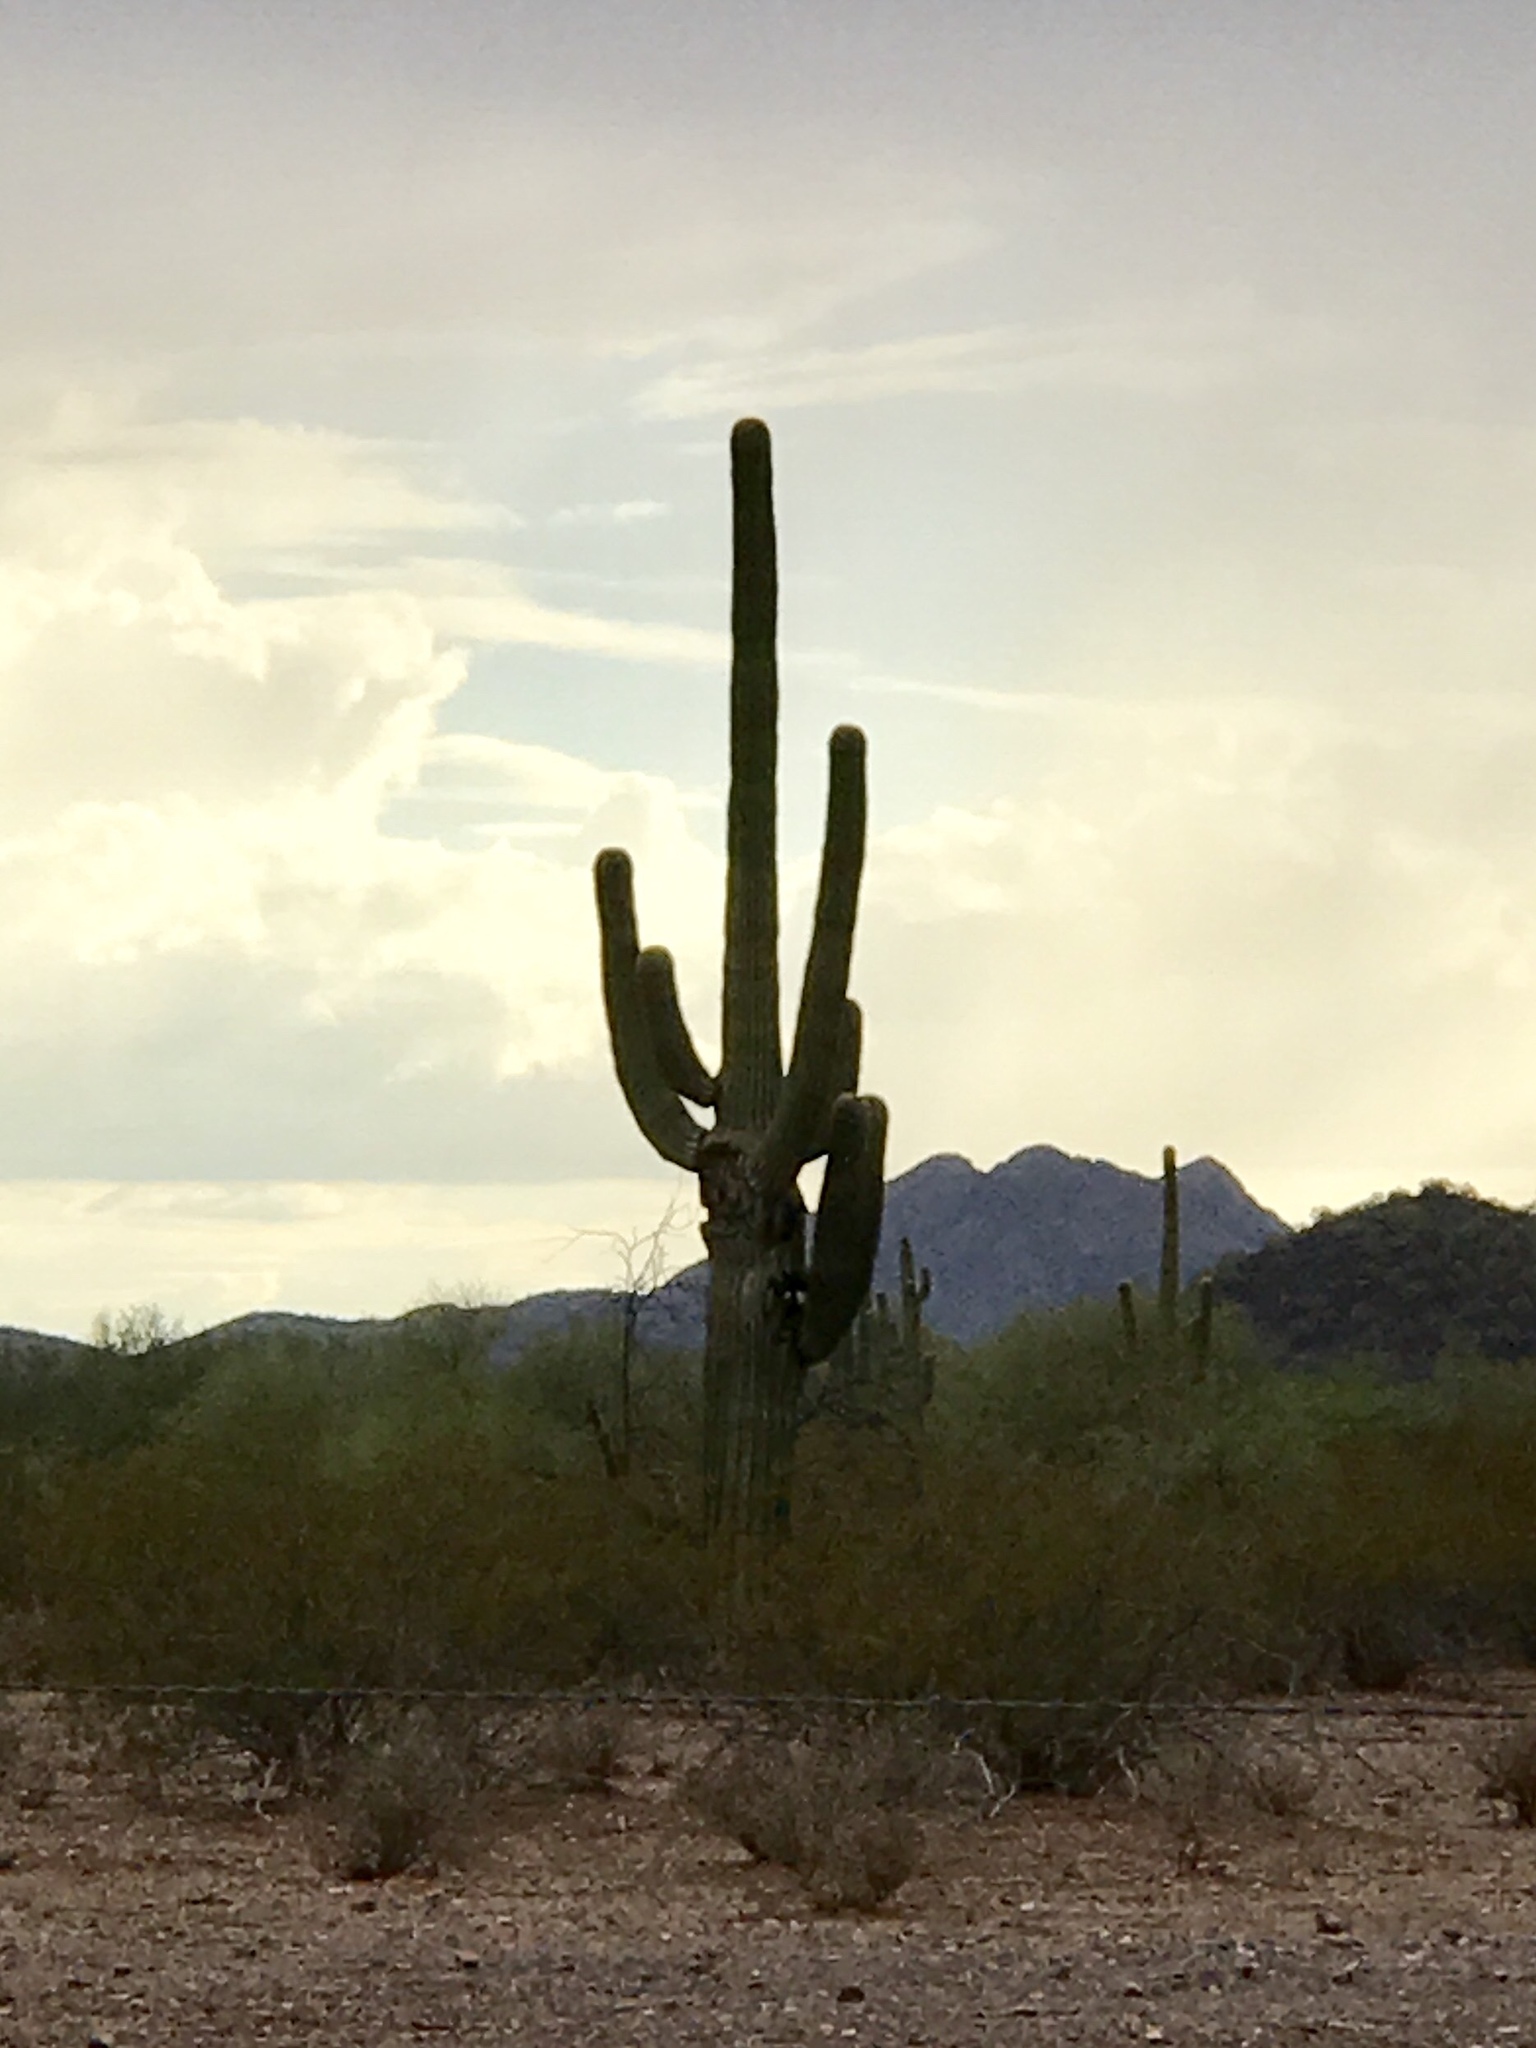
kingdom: Plantae
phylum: Tracheophyta
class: Magnoliopsida
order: Caryophyllales
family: Cactaceae
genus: Carnegiea
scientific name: Carnegiea gigantea
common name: Saguaro
